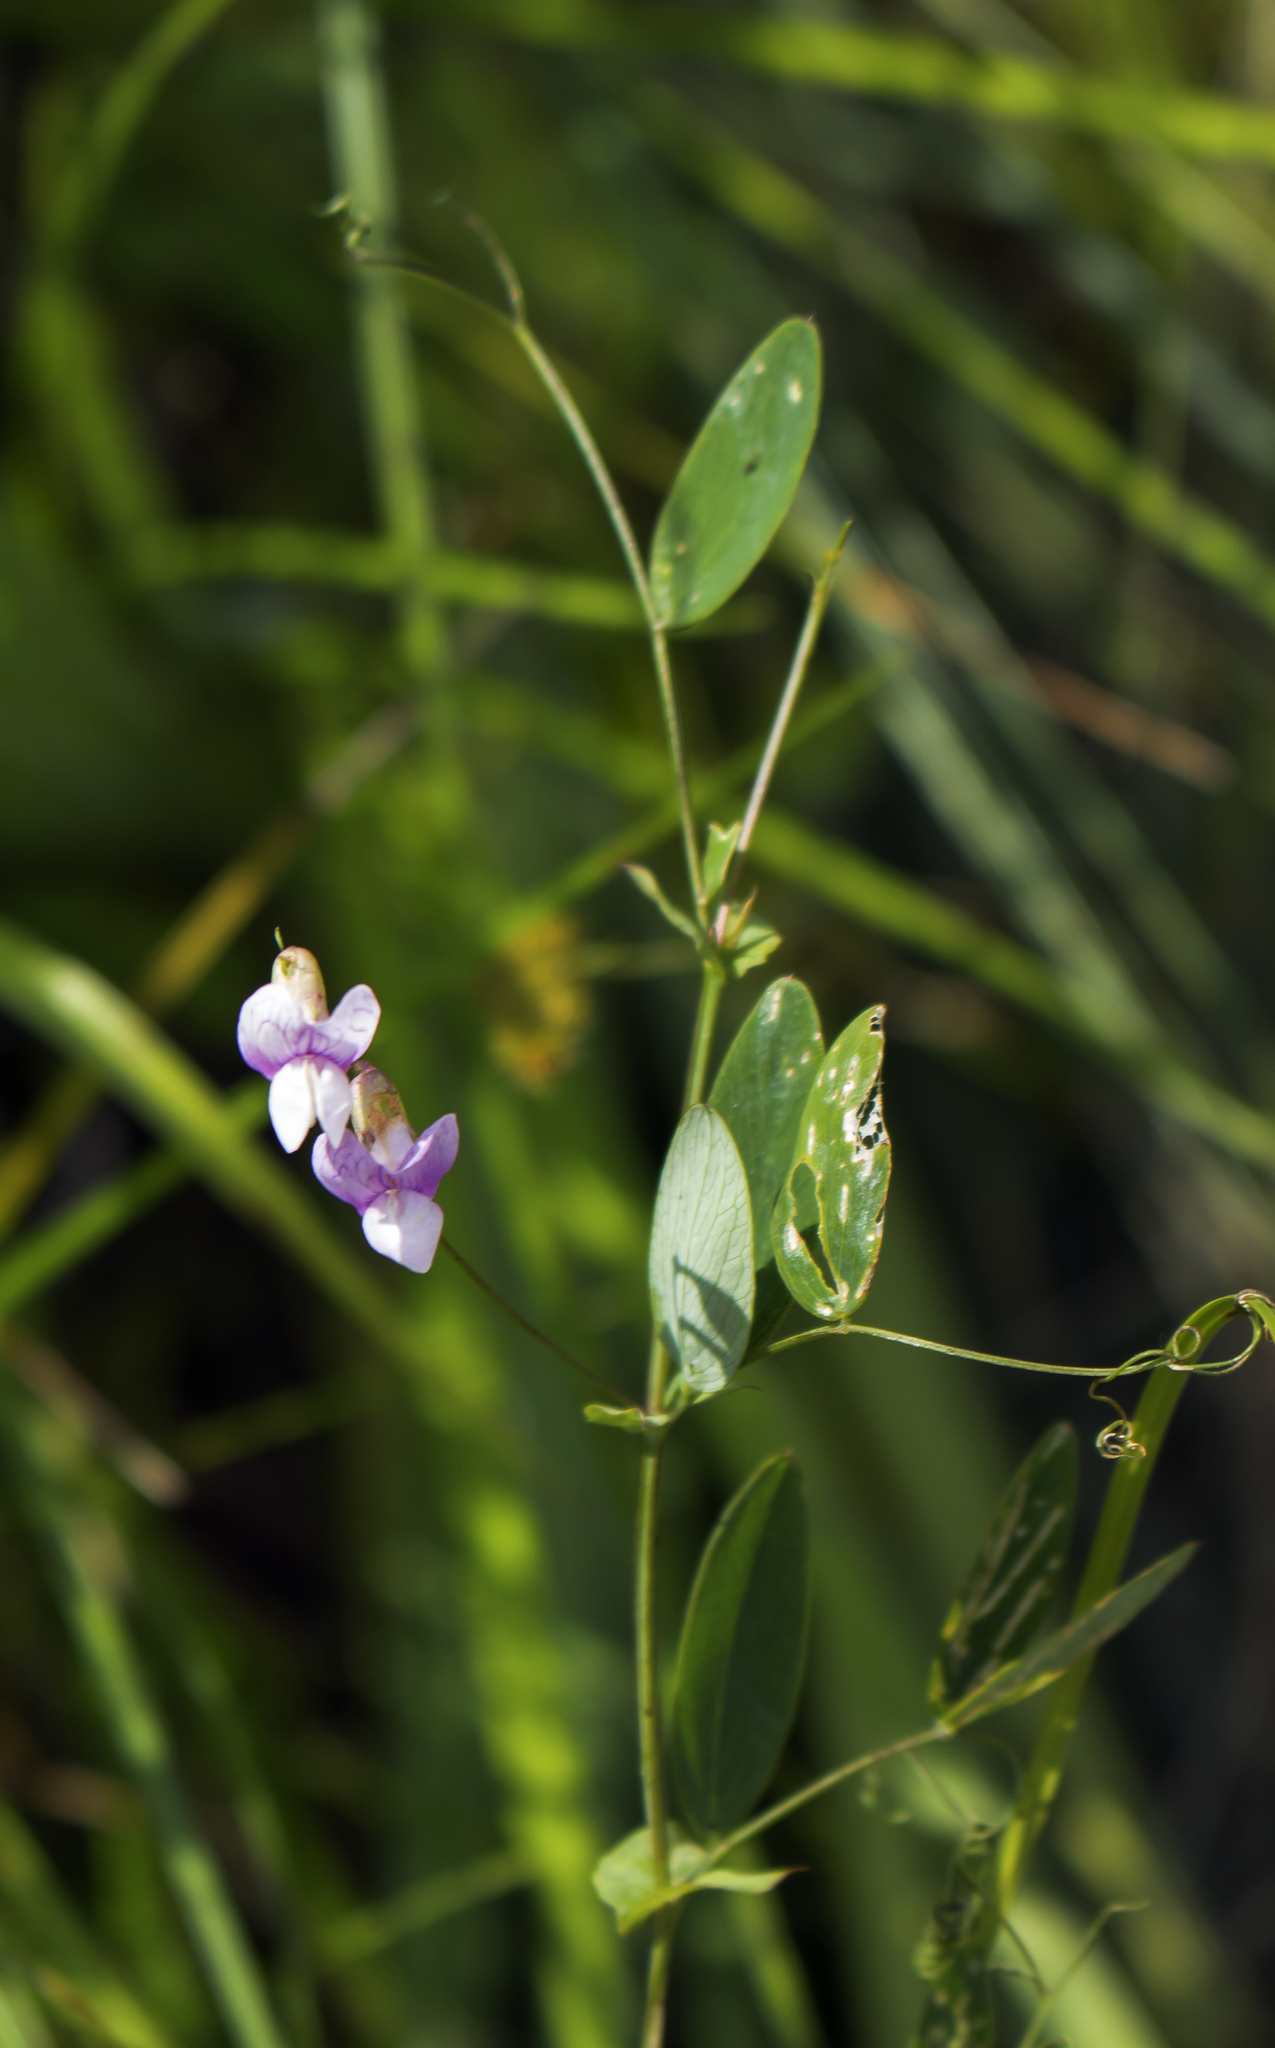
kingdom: Plantae
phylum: Tracheophyta
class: Magnoliopsida
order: Fabales
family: Fabaceae
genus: Lathyrus
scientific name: Lathyrus palustris
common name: Marsh pea
